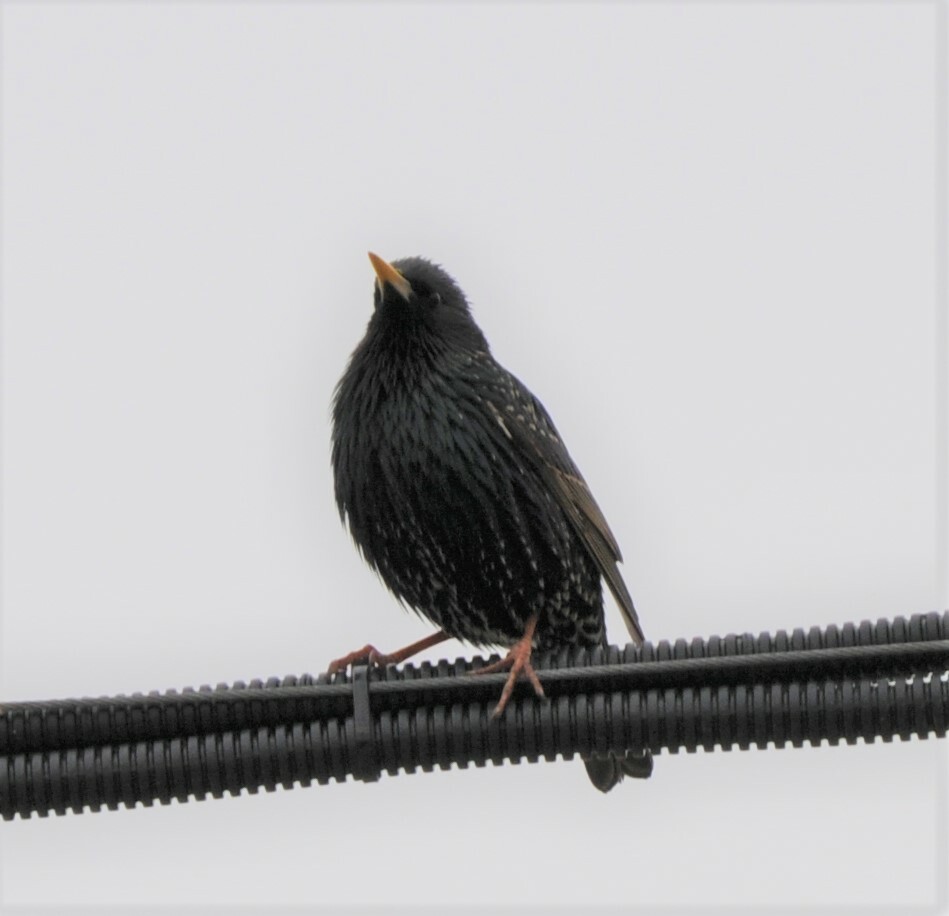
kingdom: Animalia
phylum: Chordata
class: Aves
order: Passeriformes
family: Sturnidae
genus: Sturnus
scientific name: Sturnus vulgaris
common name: Common starling
